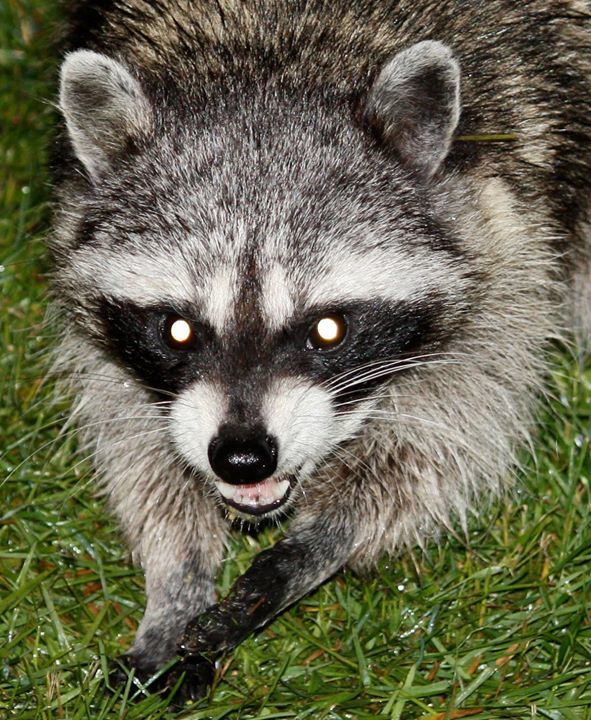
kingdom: Animalia
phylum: Chordata
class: Mammalia
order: Carnivora
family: Procyonidae
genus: Procyon
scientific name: Procyon lotor
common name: Raccoon
